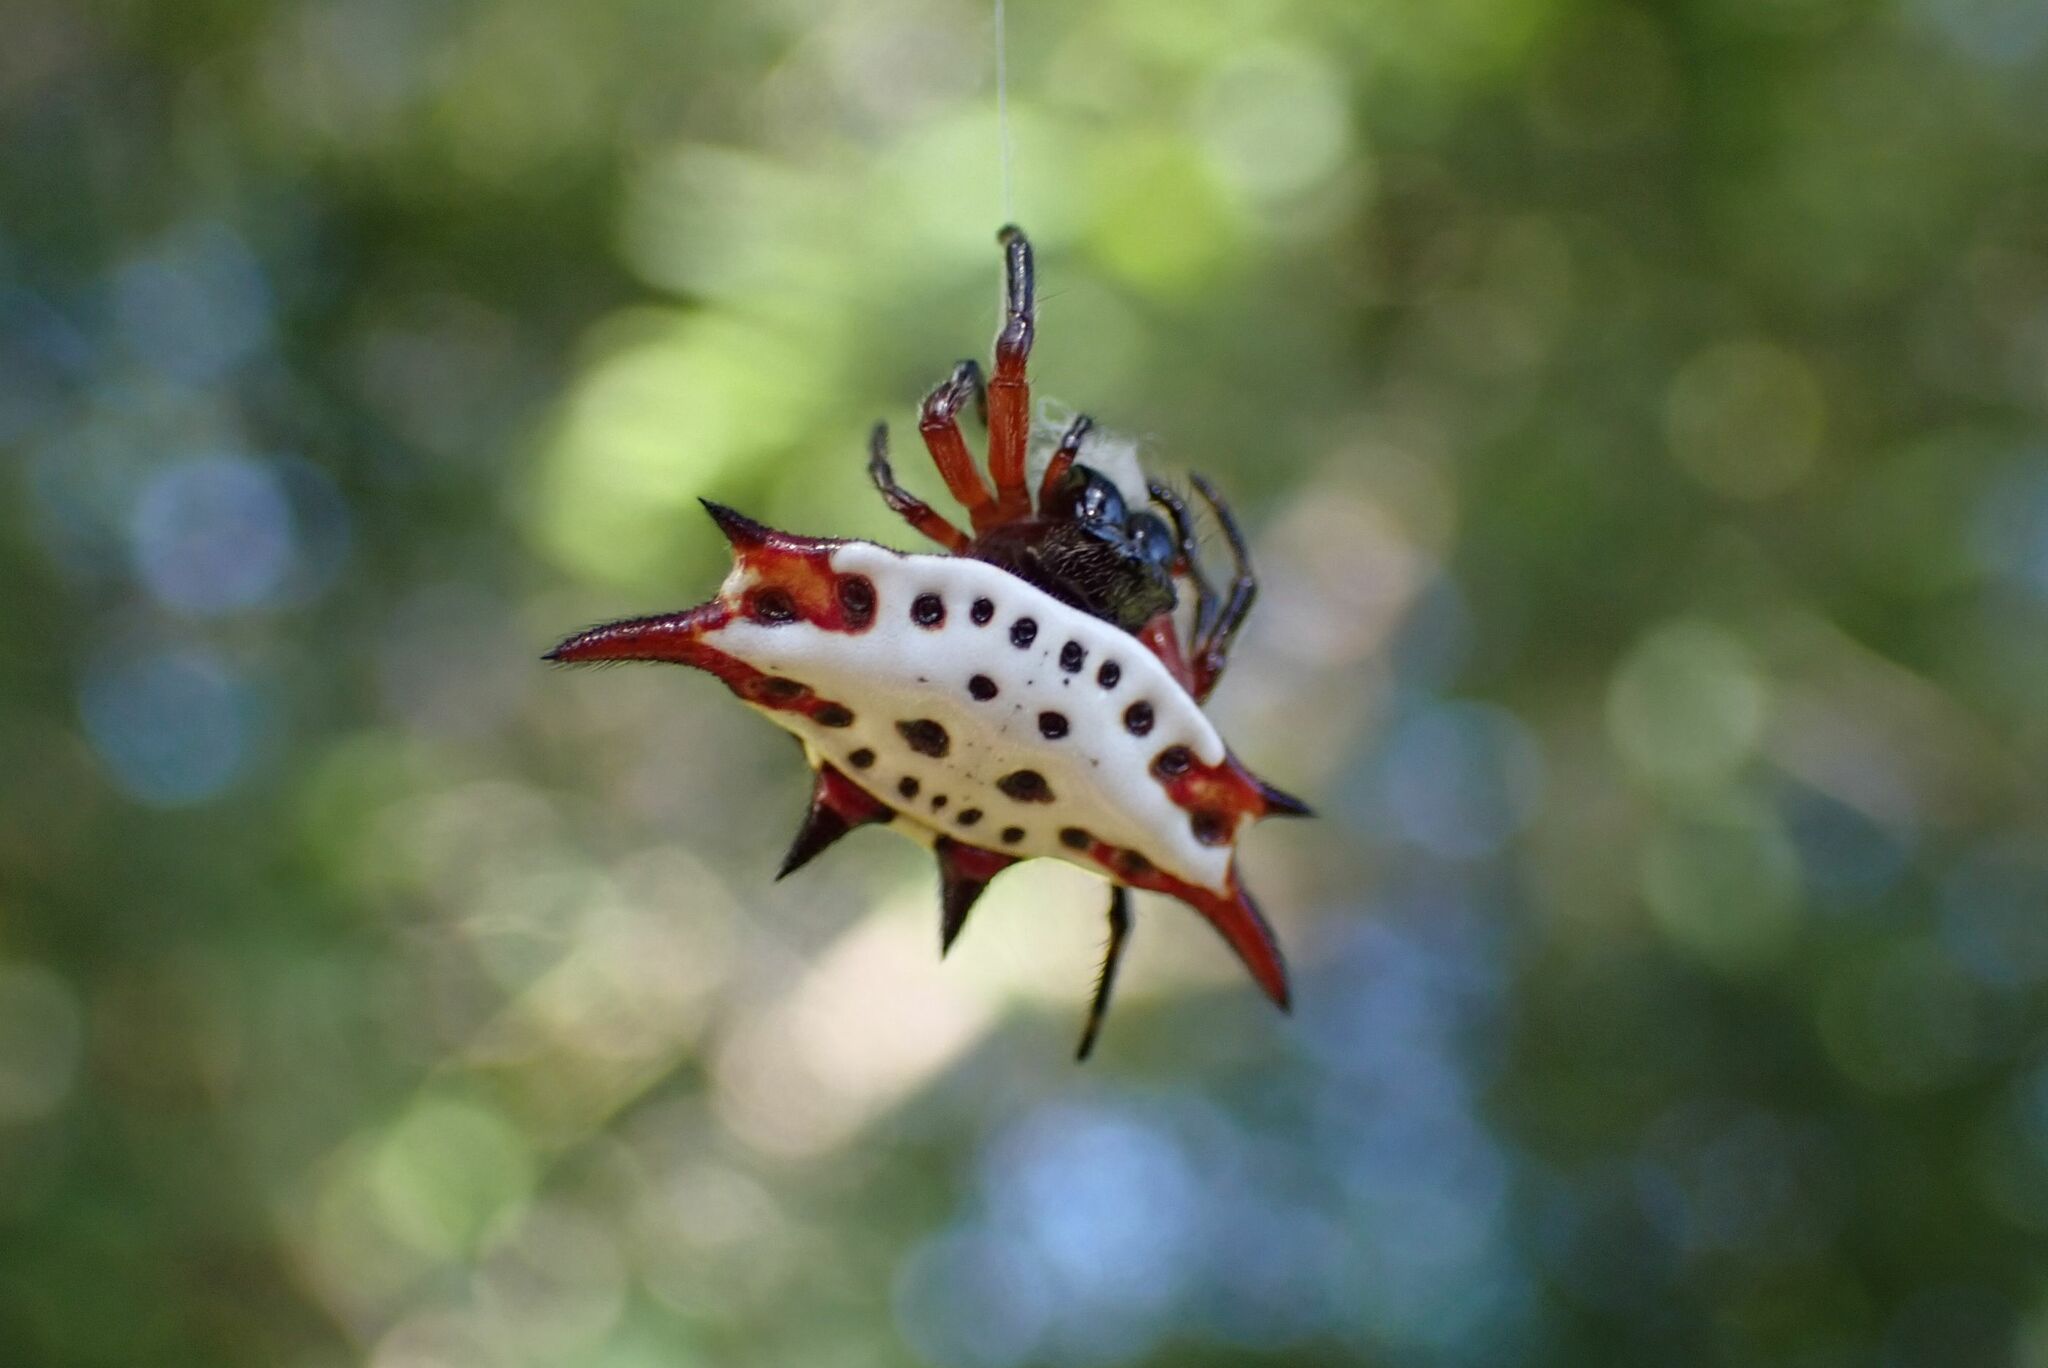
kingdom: Animalia
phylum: Arthropoda
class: Arachnida
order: Araneae
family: Araneidae
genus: Gasteracantha
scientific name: Gasteracantha sanguinolenta
